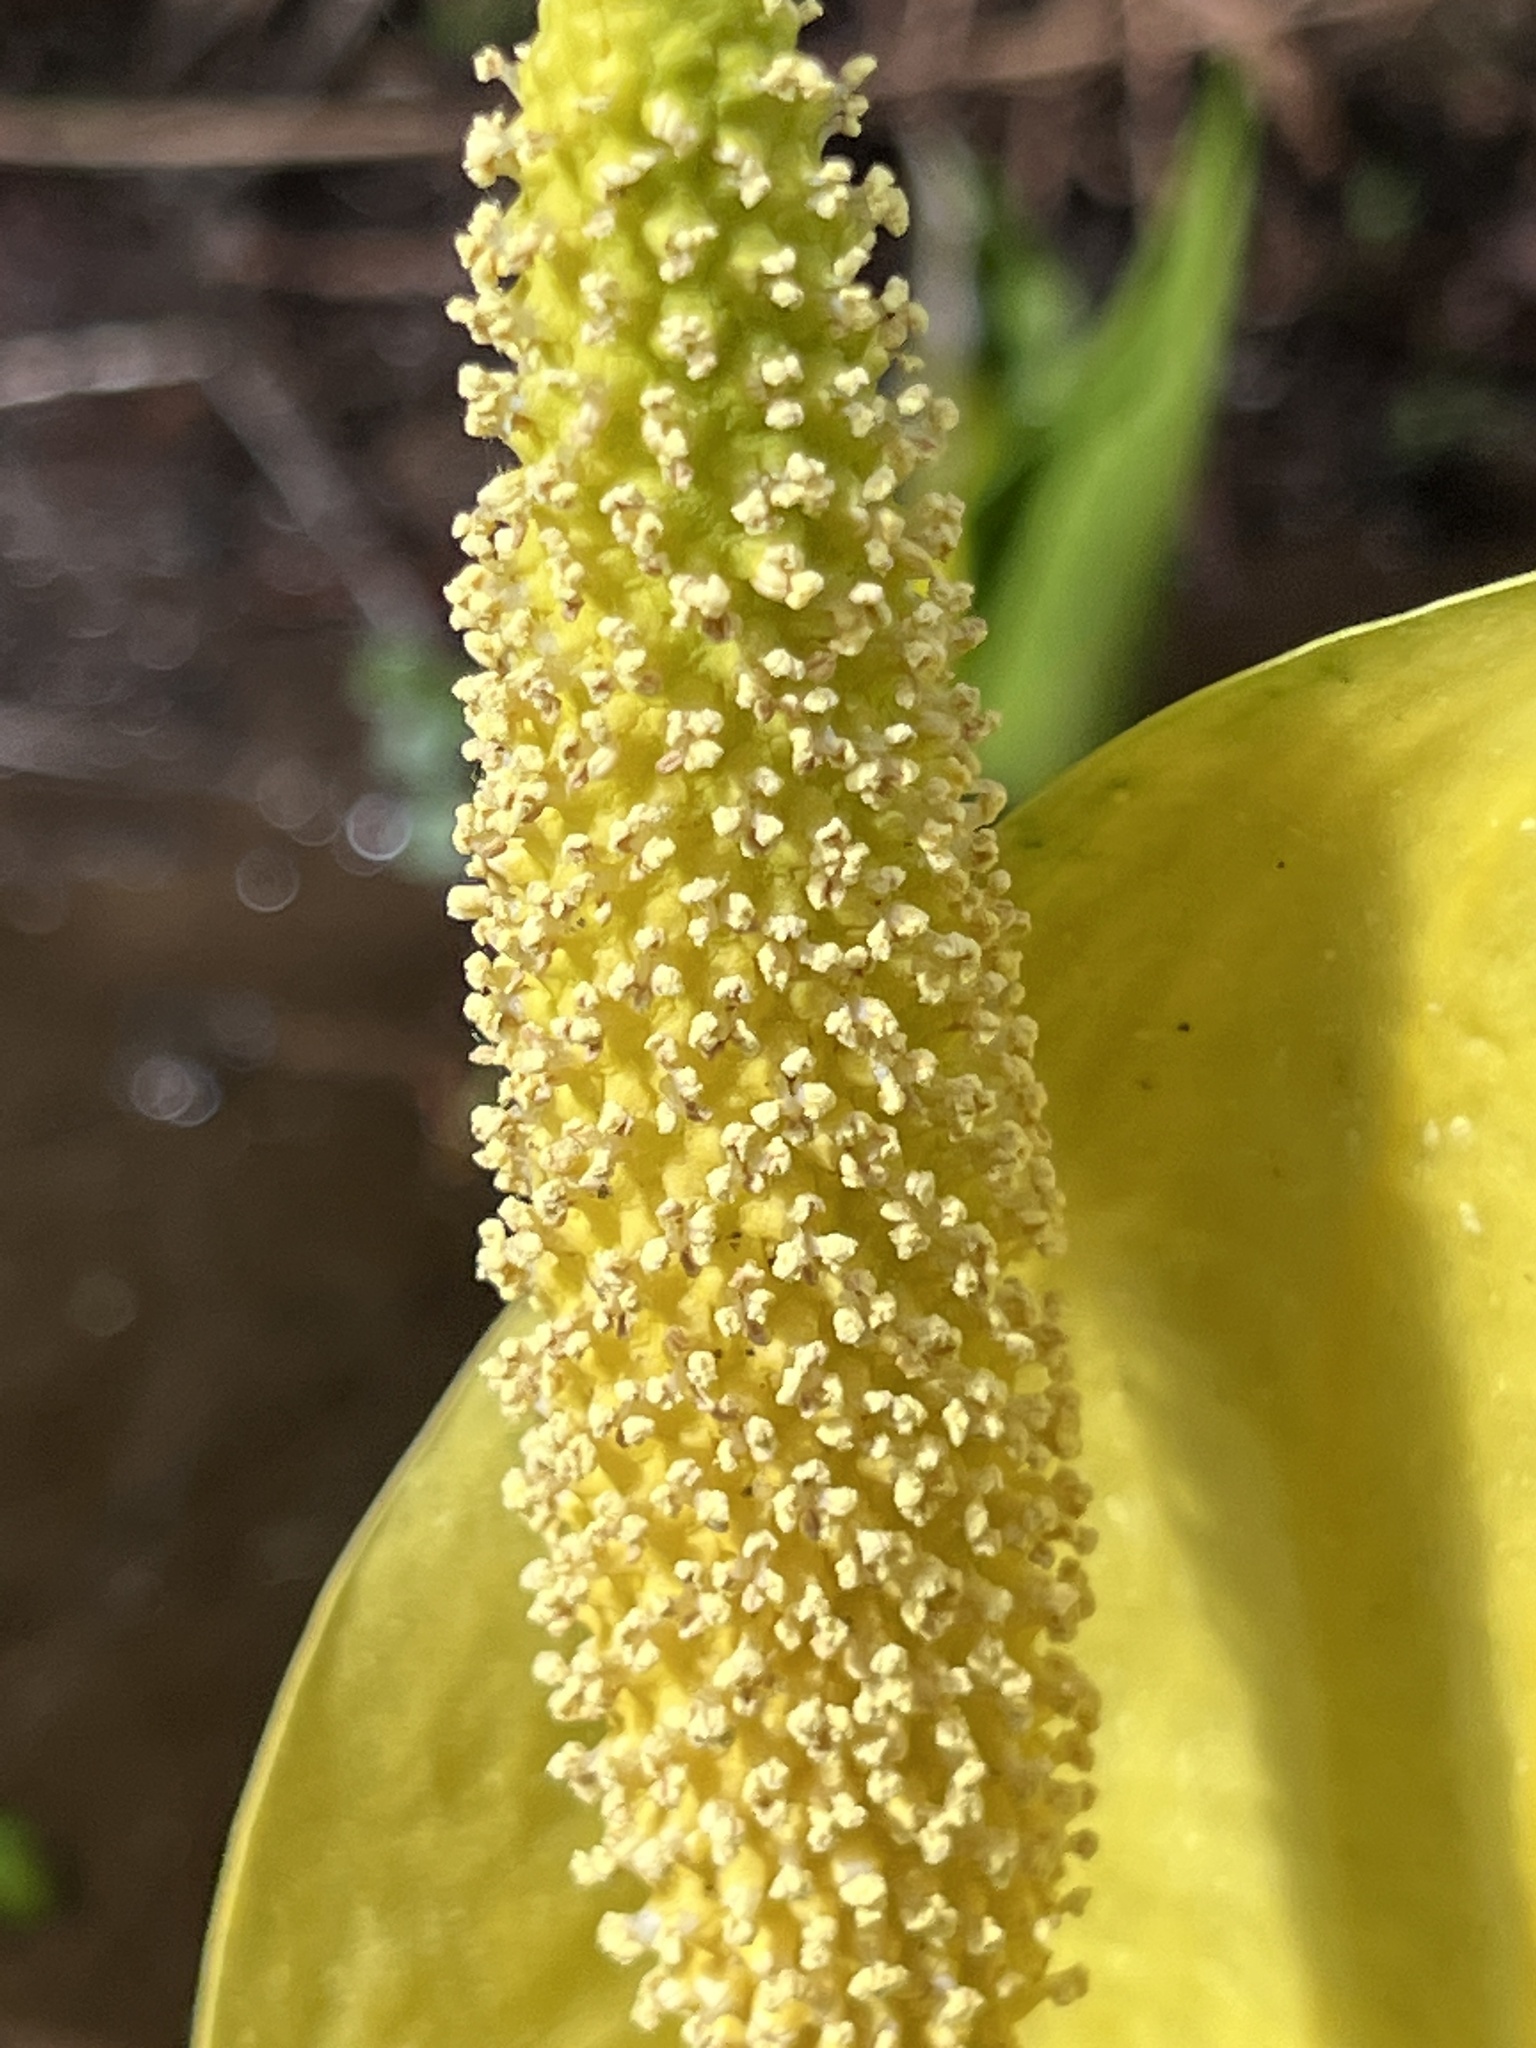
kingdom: Plantae
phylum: Tracheophyta
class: Liliopsida
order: Alismatales
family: Araceae
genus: Lysichiton
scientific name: Lysichiton americanus
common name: American skunk cabbage
